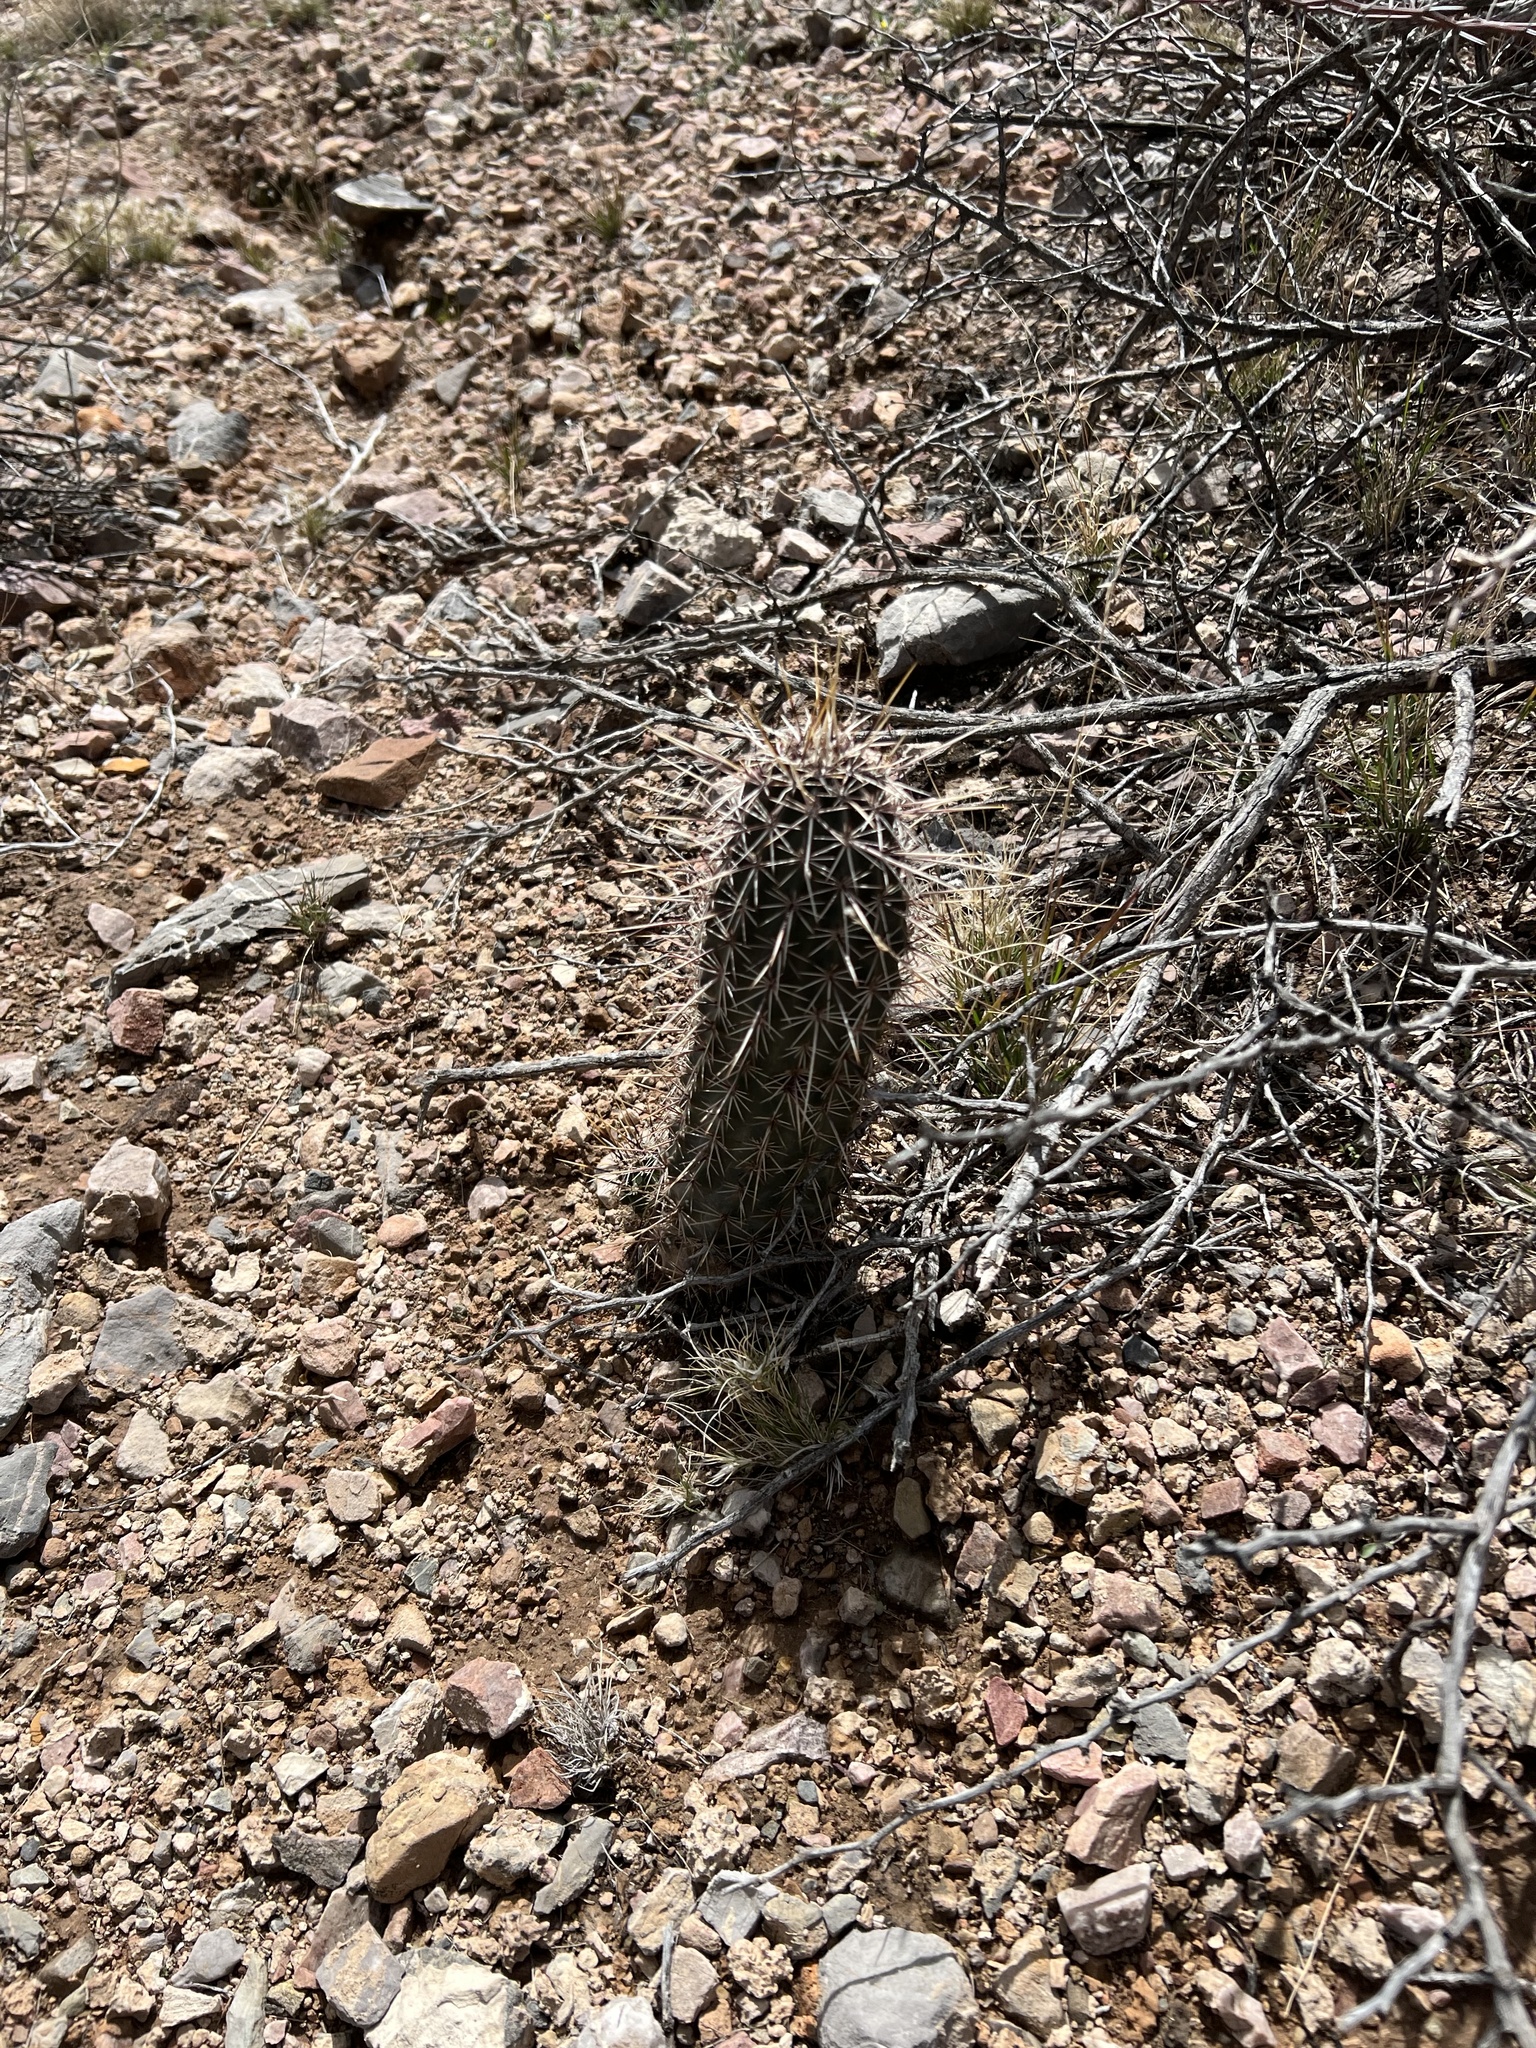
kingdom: Plantae
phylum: Tracheophyta
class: Magnoliopsida
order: Caryophyllales
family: Cactaceae
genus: Echinocereus
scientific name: Echinocereus fasciculatus
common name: Bundle hedgehog
